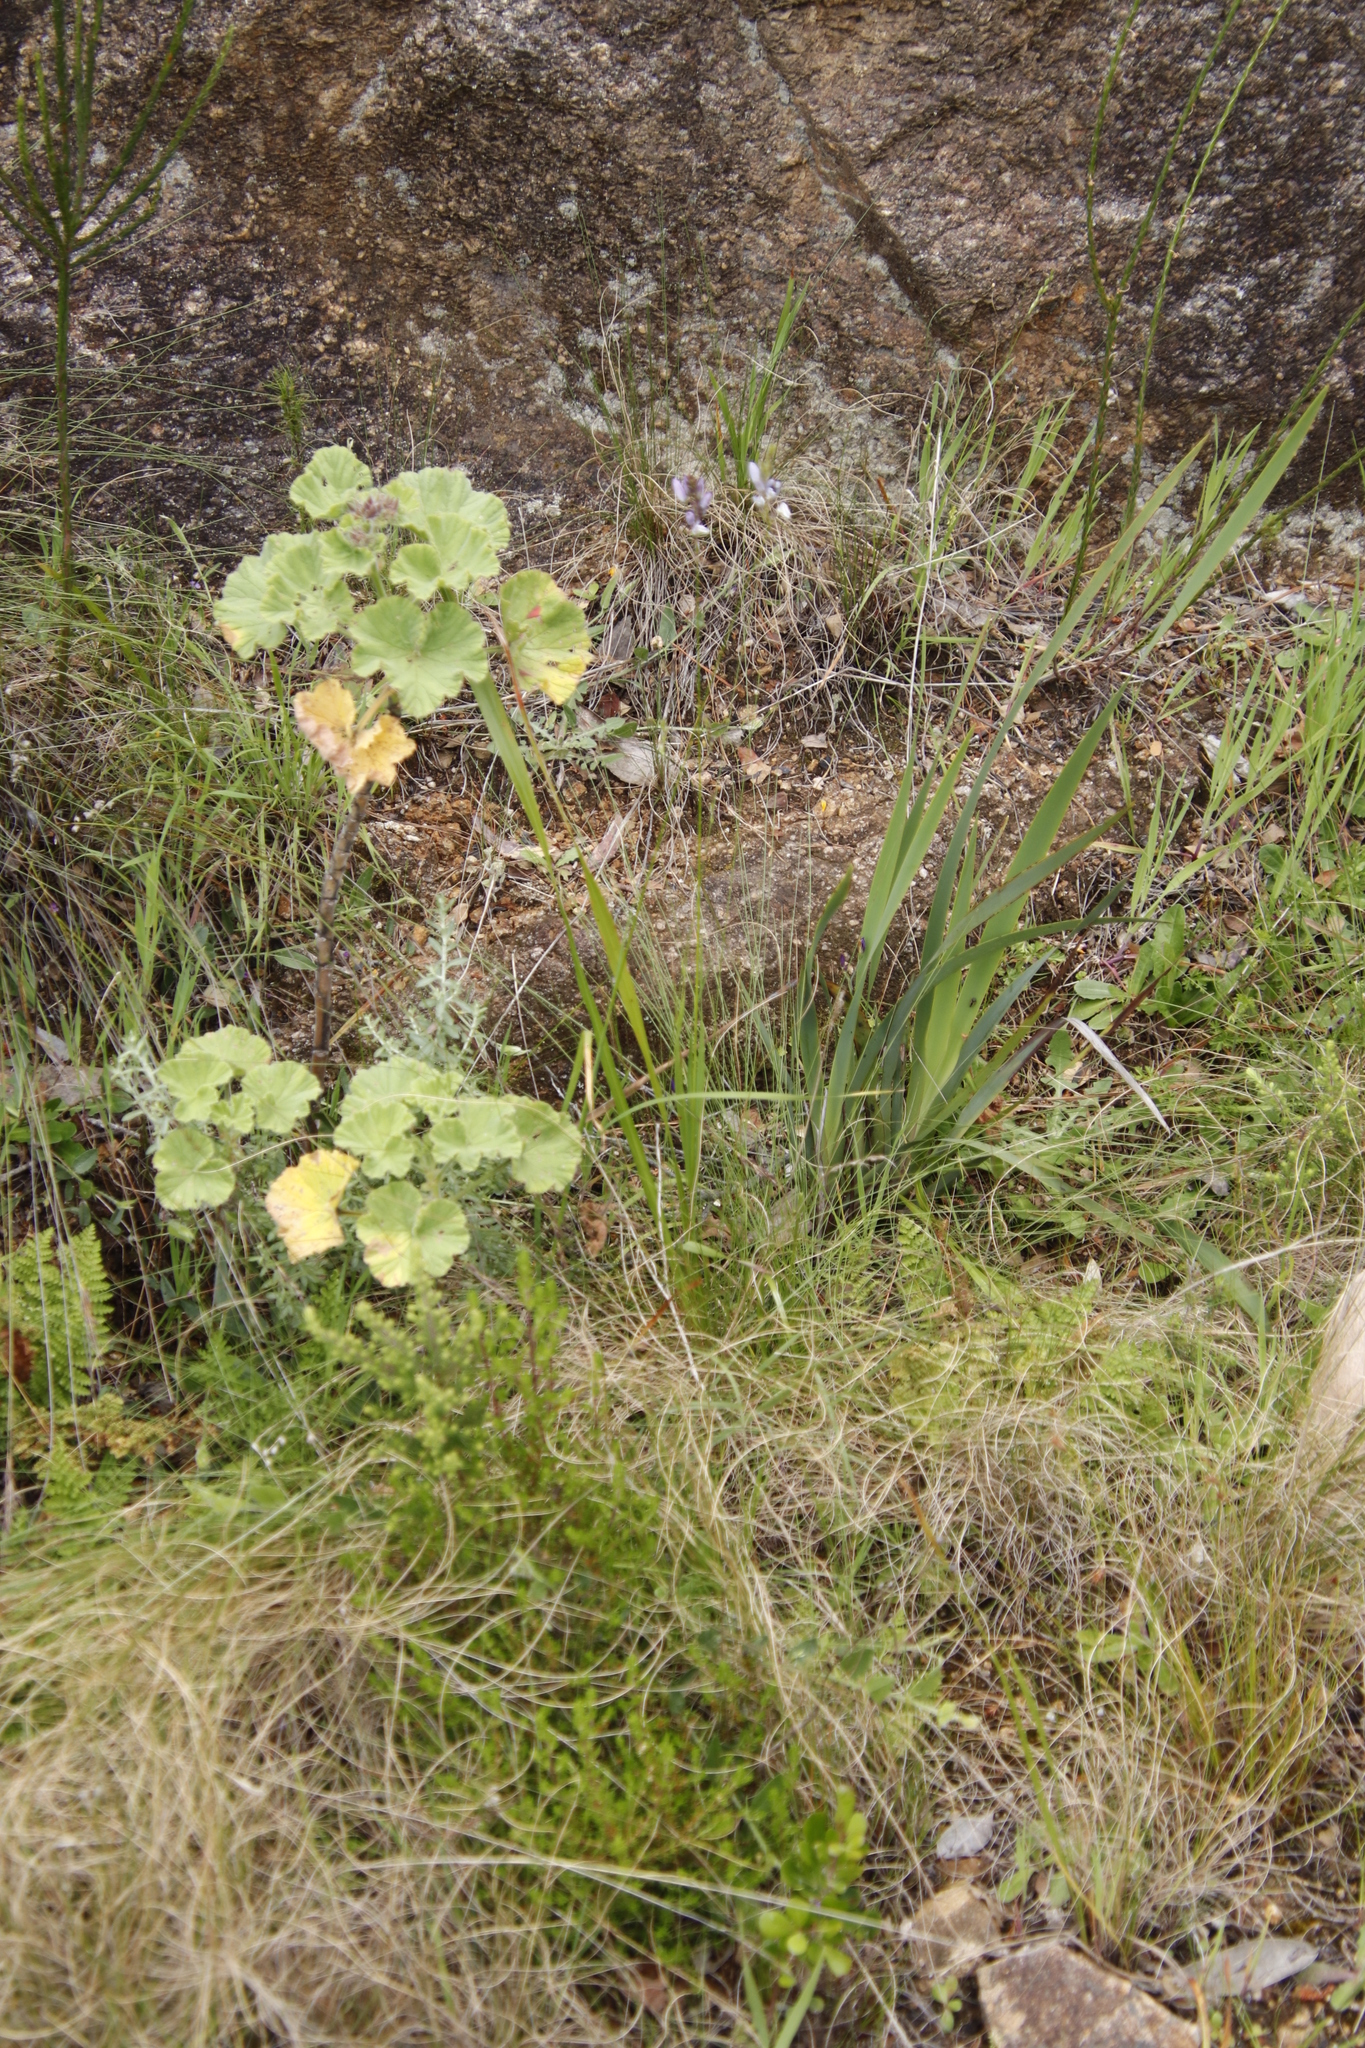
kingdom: Plantae
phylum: Tracheophyta
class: Magnoliopsida
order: Geraniales
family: Geraniaceae
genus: Pelargonium
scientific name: Pelargonium cucullatum
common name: Tree pelargonium
